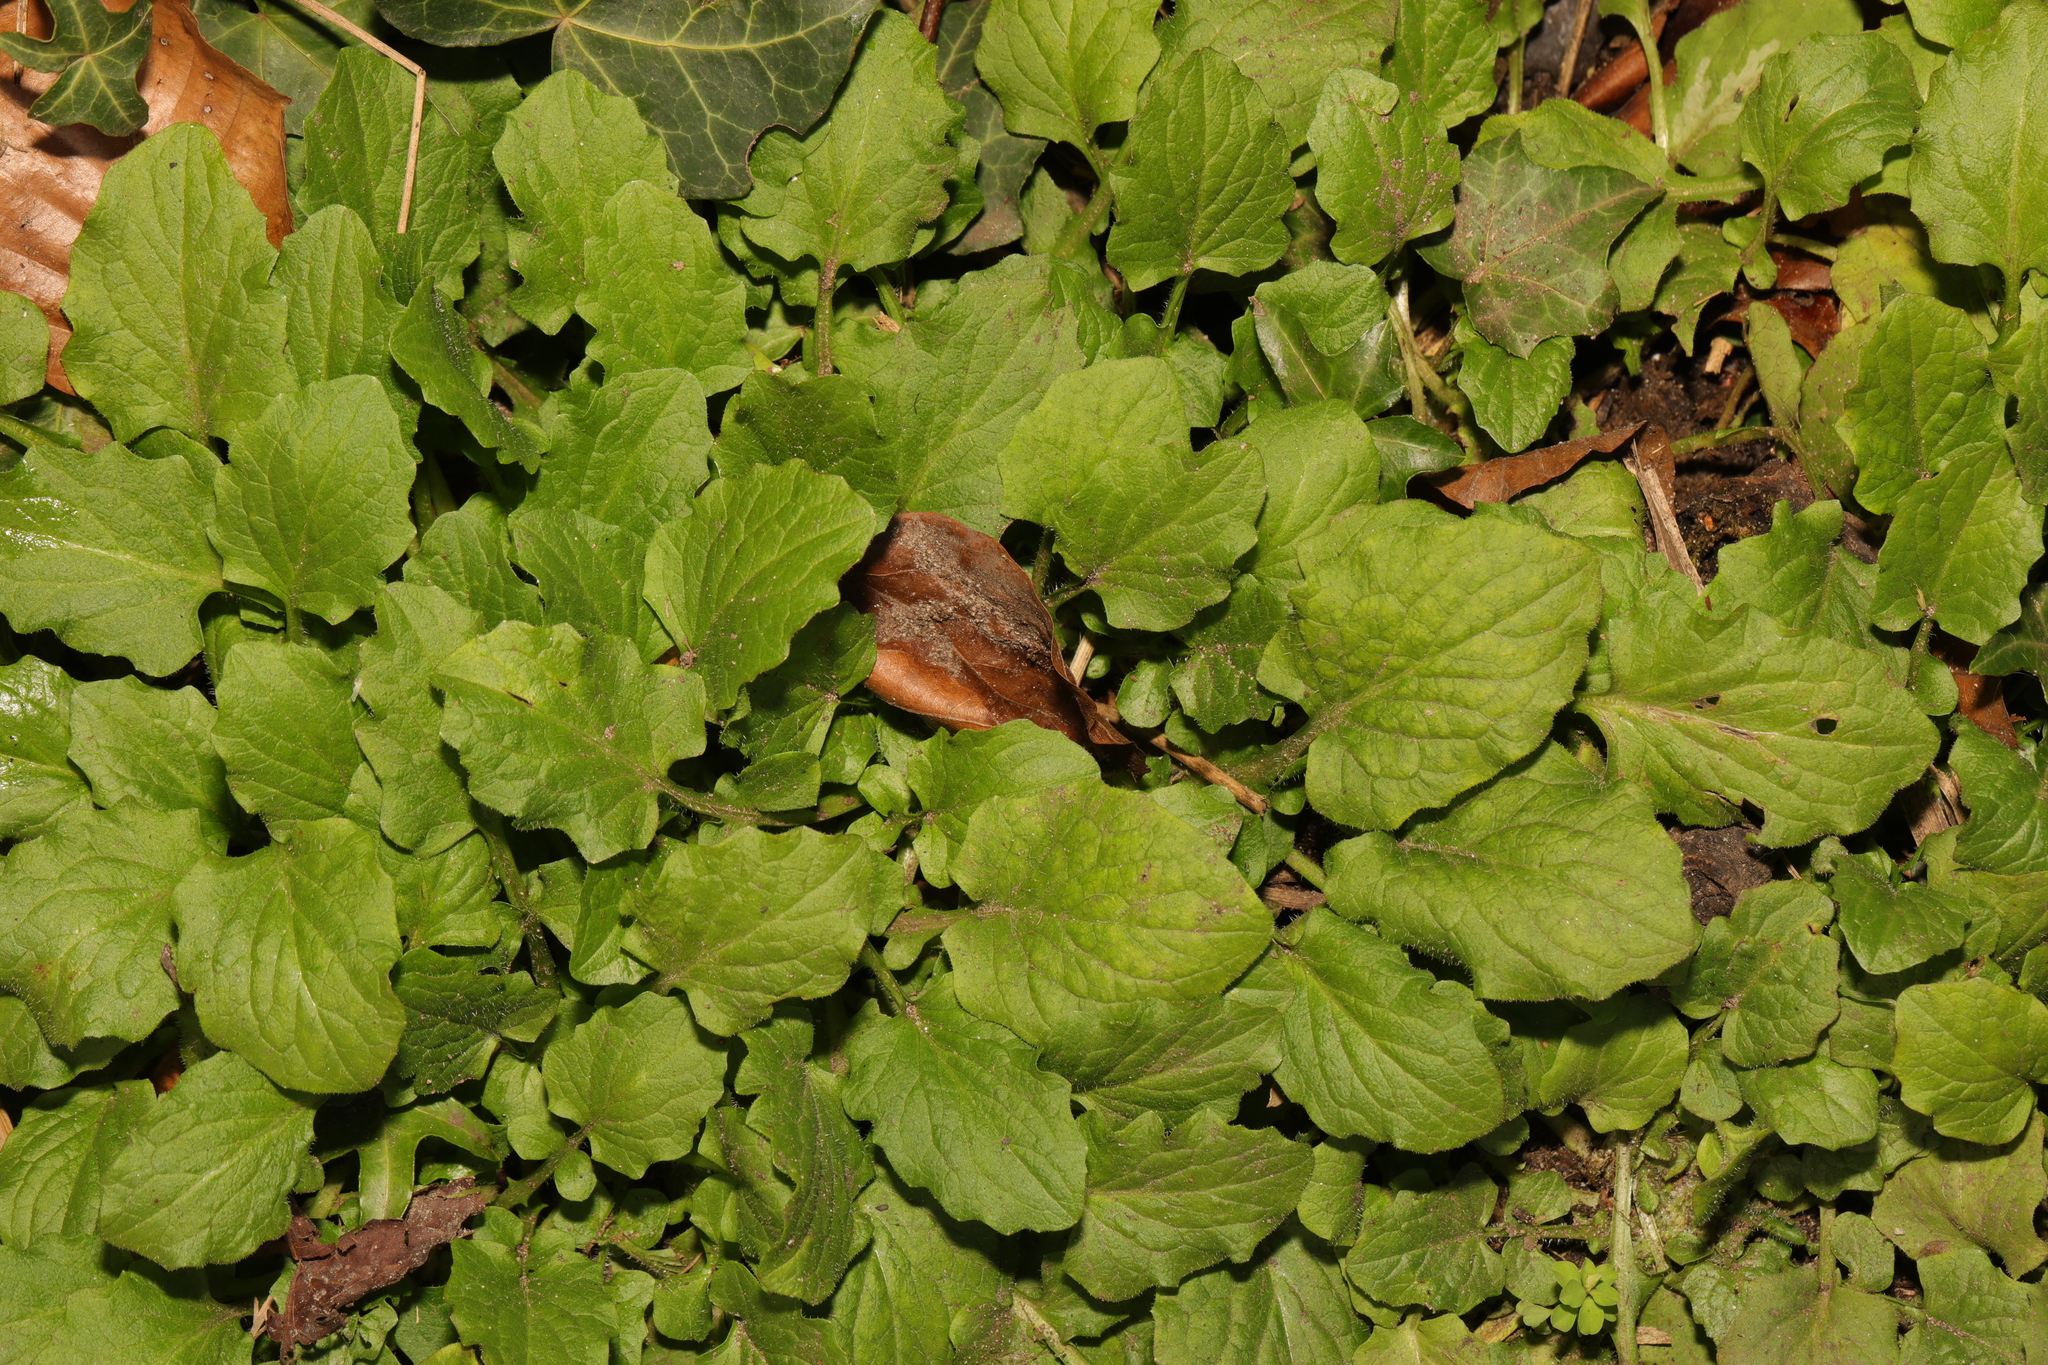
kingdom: Plantae
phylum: Tracheophyta
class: Magnoliopsida
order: Asterales
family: Asteraceae
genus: Lapsana
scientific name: Lapsana communis
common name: Nipplewort
